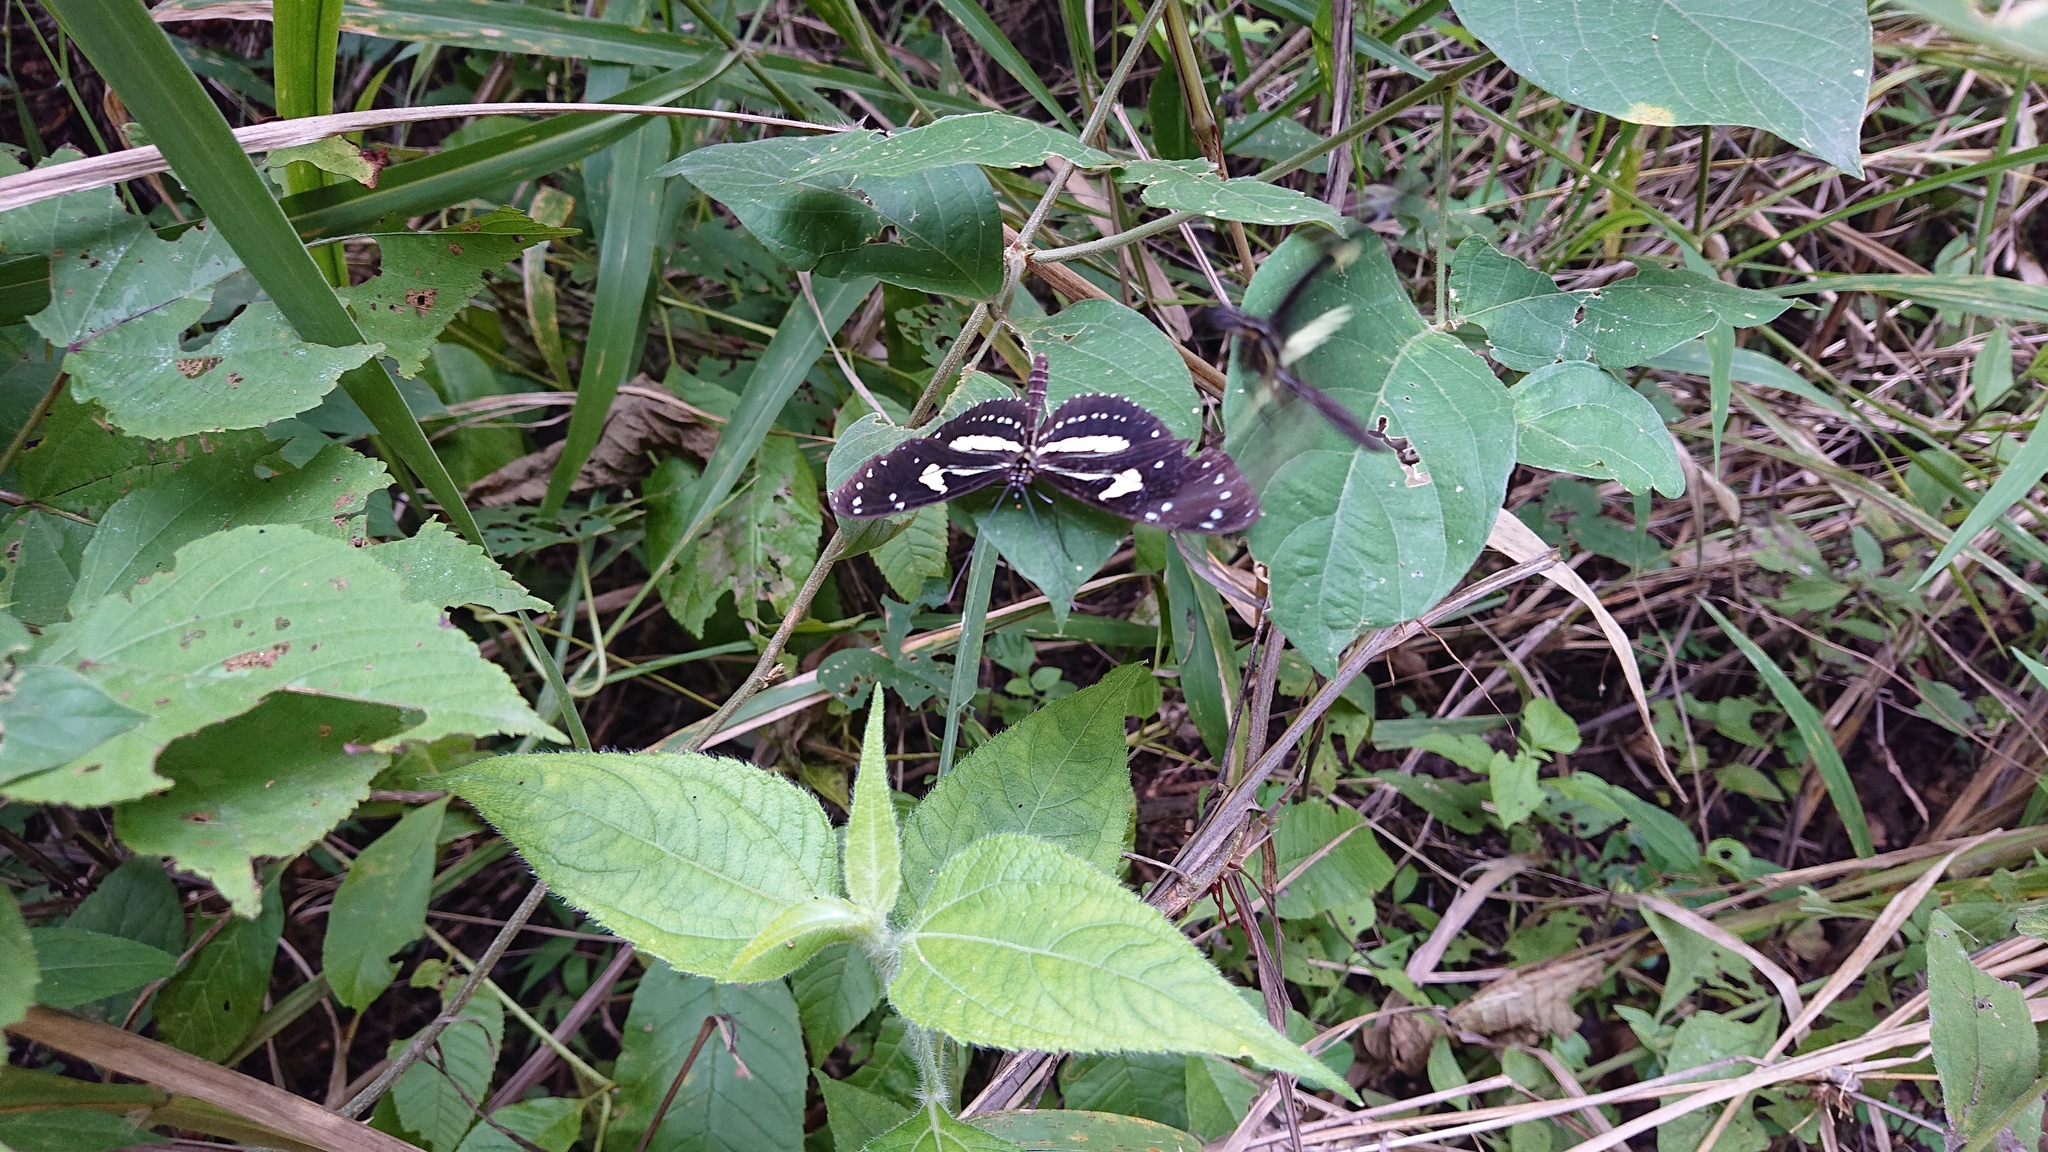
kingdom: Animalia
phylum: Arthropoda
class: Insecta
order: Lepidoptera
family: Nymphalidae
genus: Heliconius
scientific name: Heliconius atthis
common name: False zebra longwing
